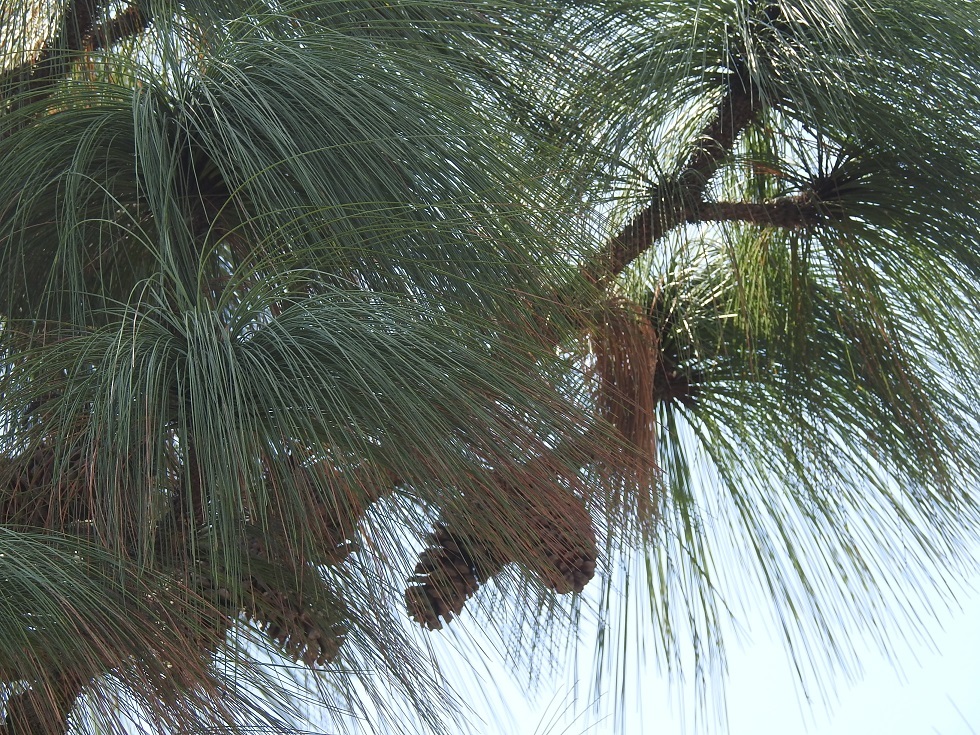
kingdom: Plantae
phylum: Tracheophyta
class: Pinopsida
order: Pinales
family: Pinaceae
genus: Pinus
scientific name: Pinus devoniana
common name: Michoacan pine
